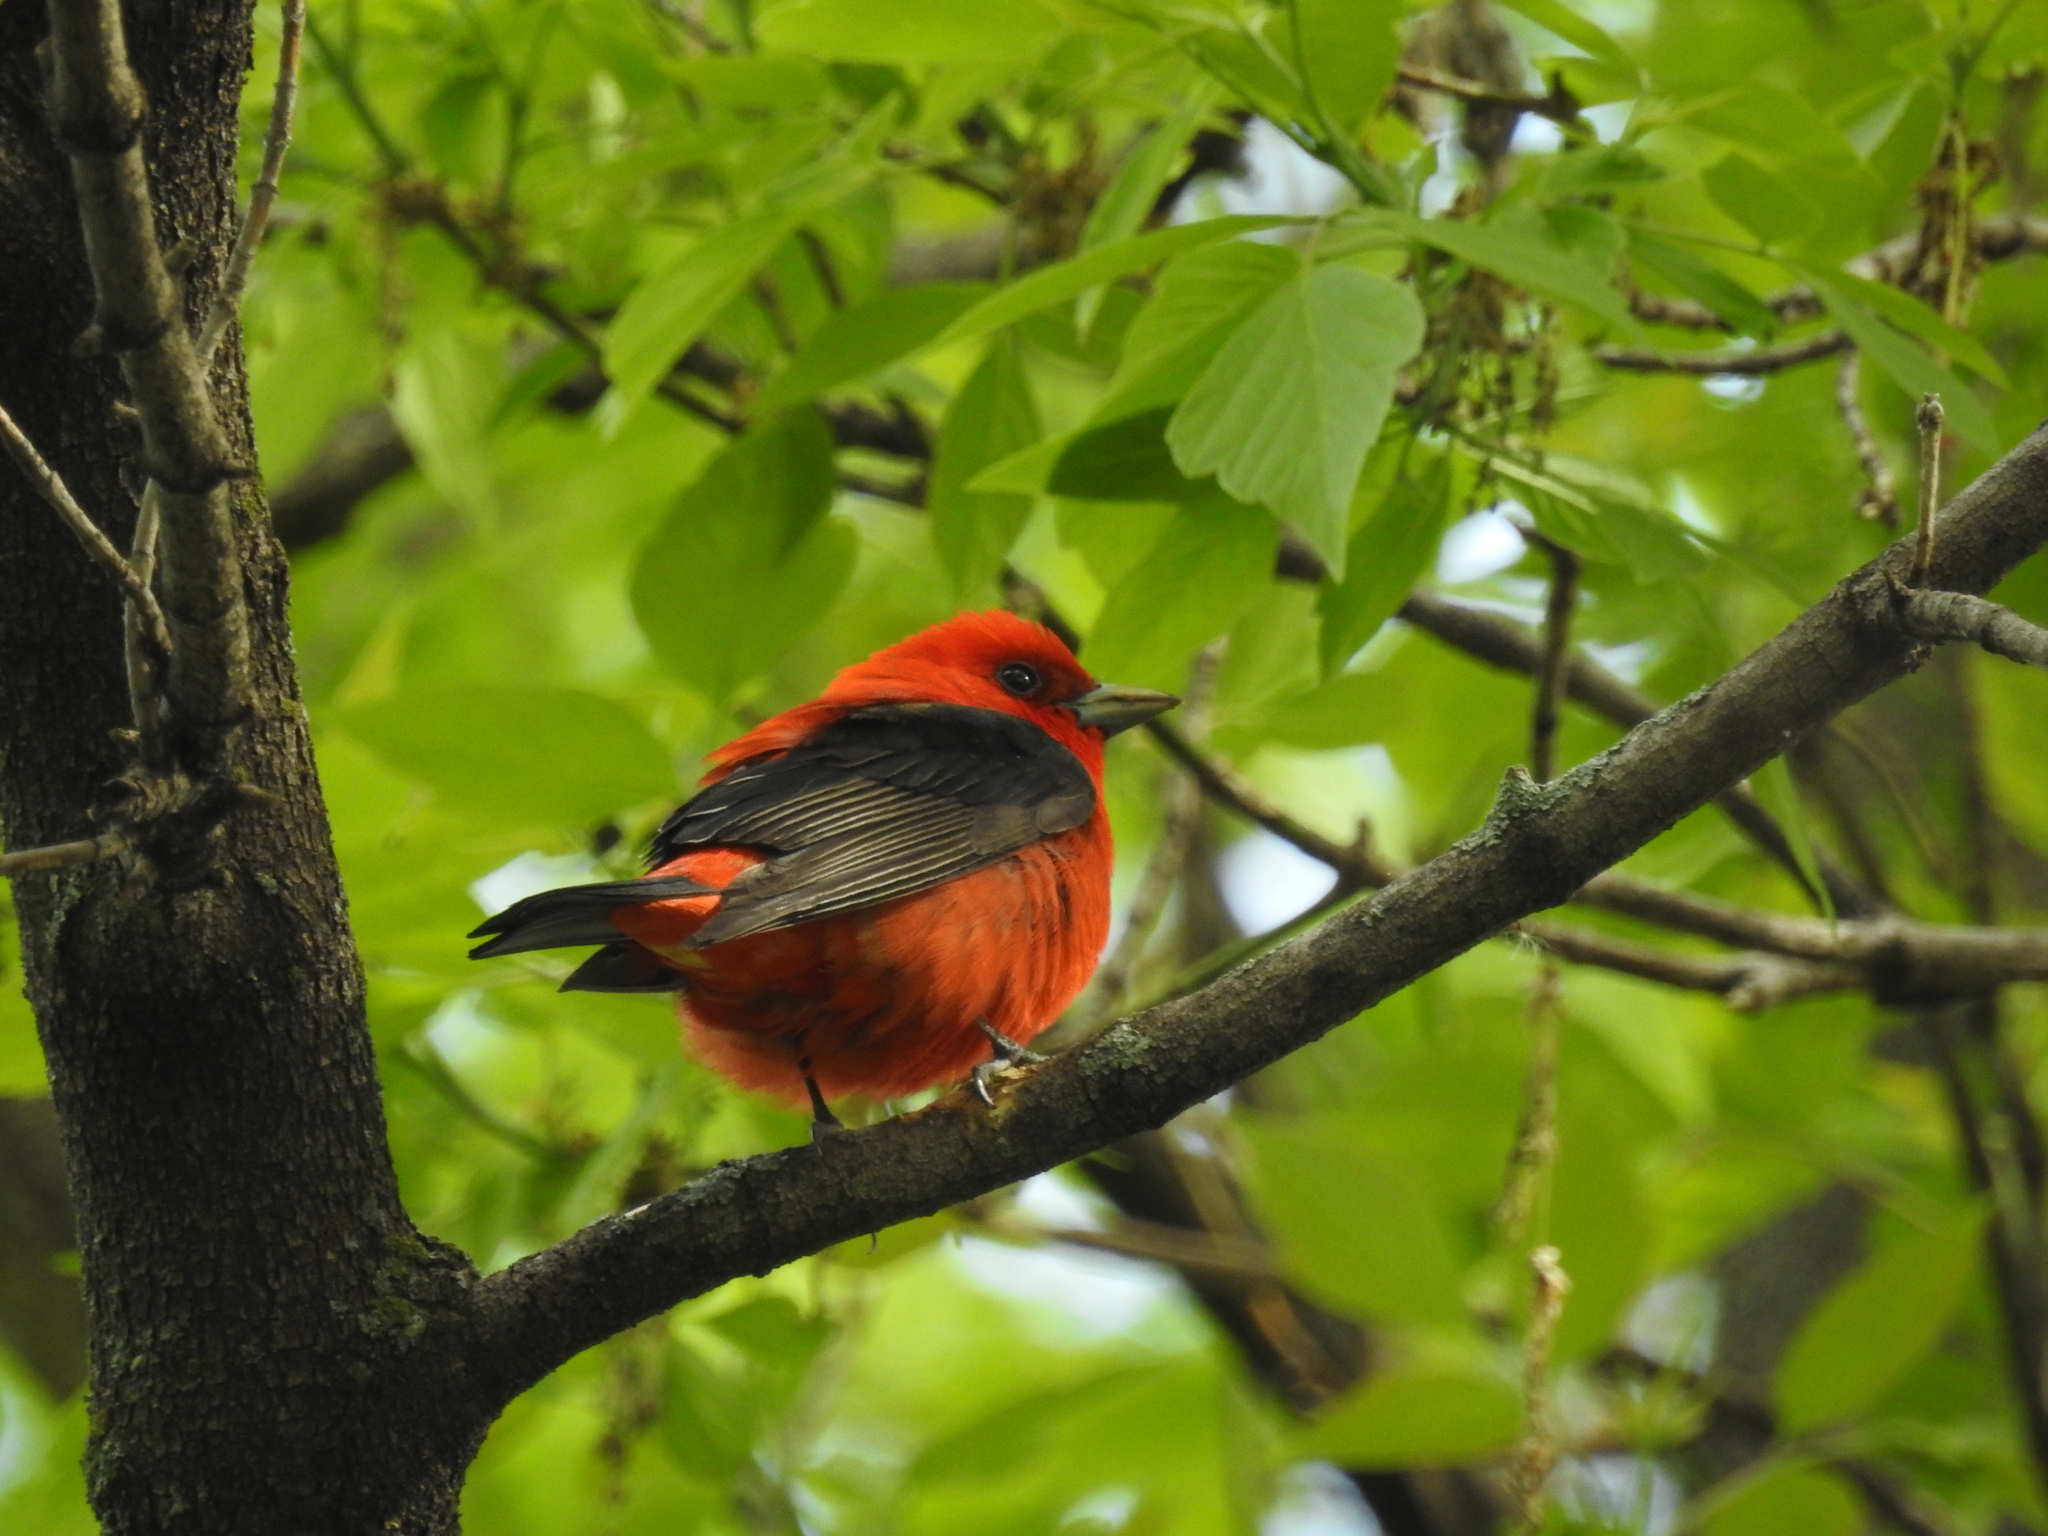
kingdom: Animalia
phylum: Chordata
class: Aves
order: Passeriformes
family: Cardinalidae
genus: Piranga
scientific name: Piranga olivacea
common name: Scarlet tanager
